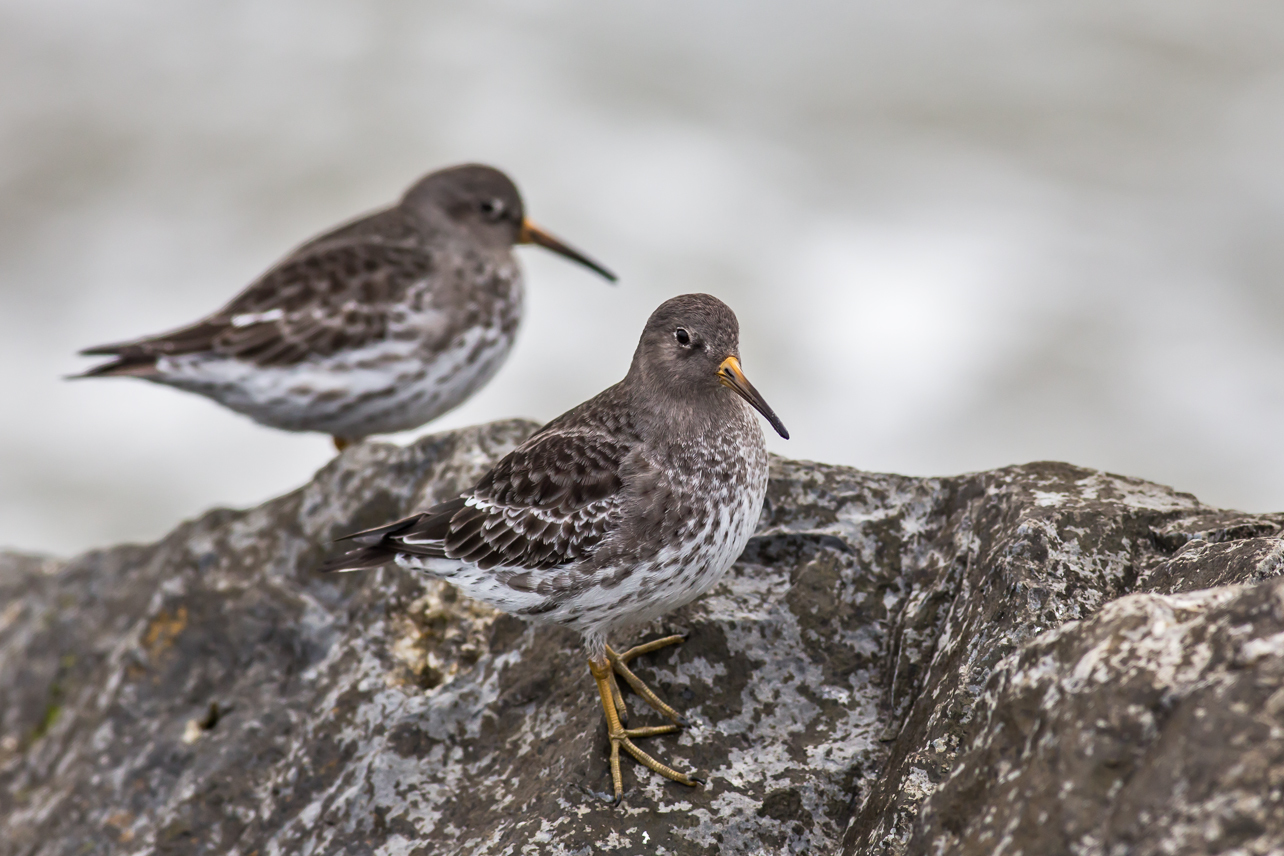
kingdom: Animalia
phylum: Chordata
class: Aves
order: Charadriiformes
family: Scolopacidae
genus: Calidris
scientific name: Calidris maritima
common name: Purple sandpiper
